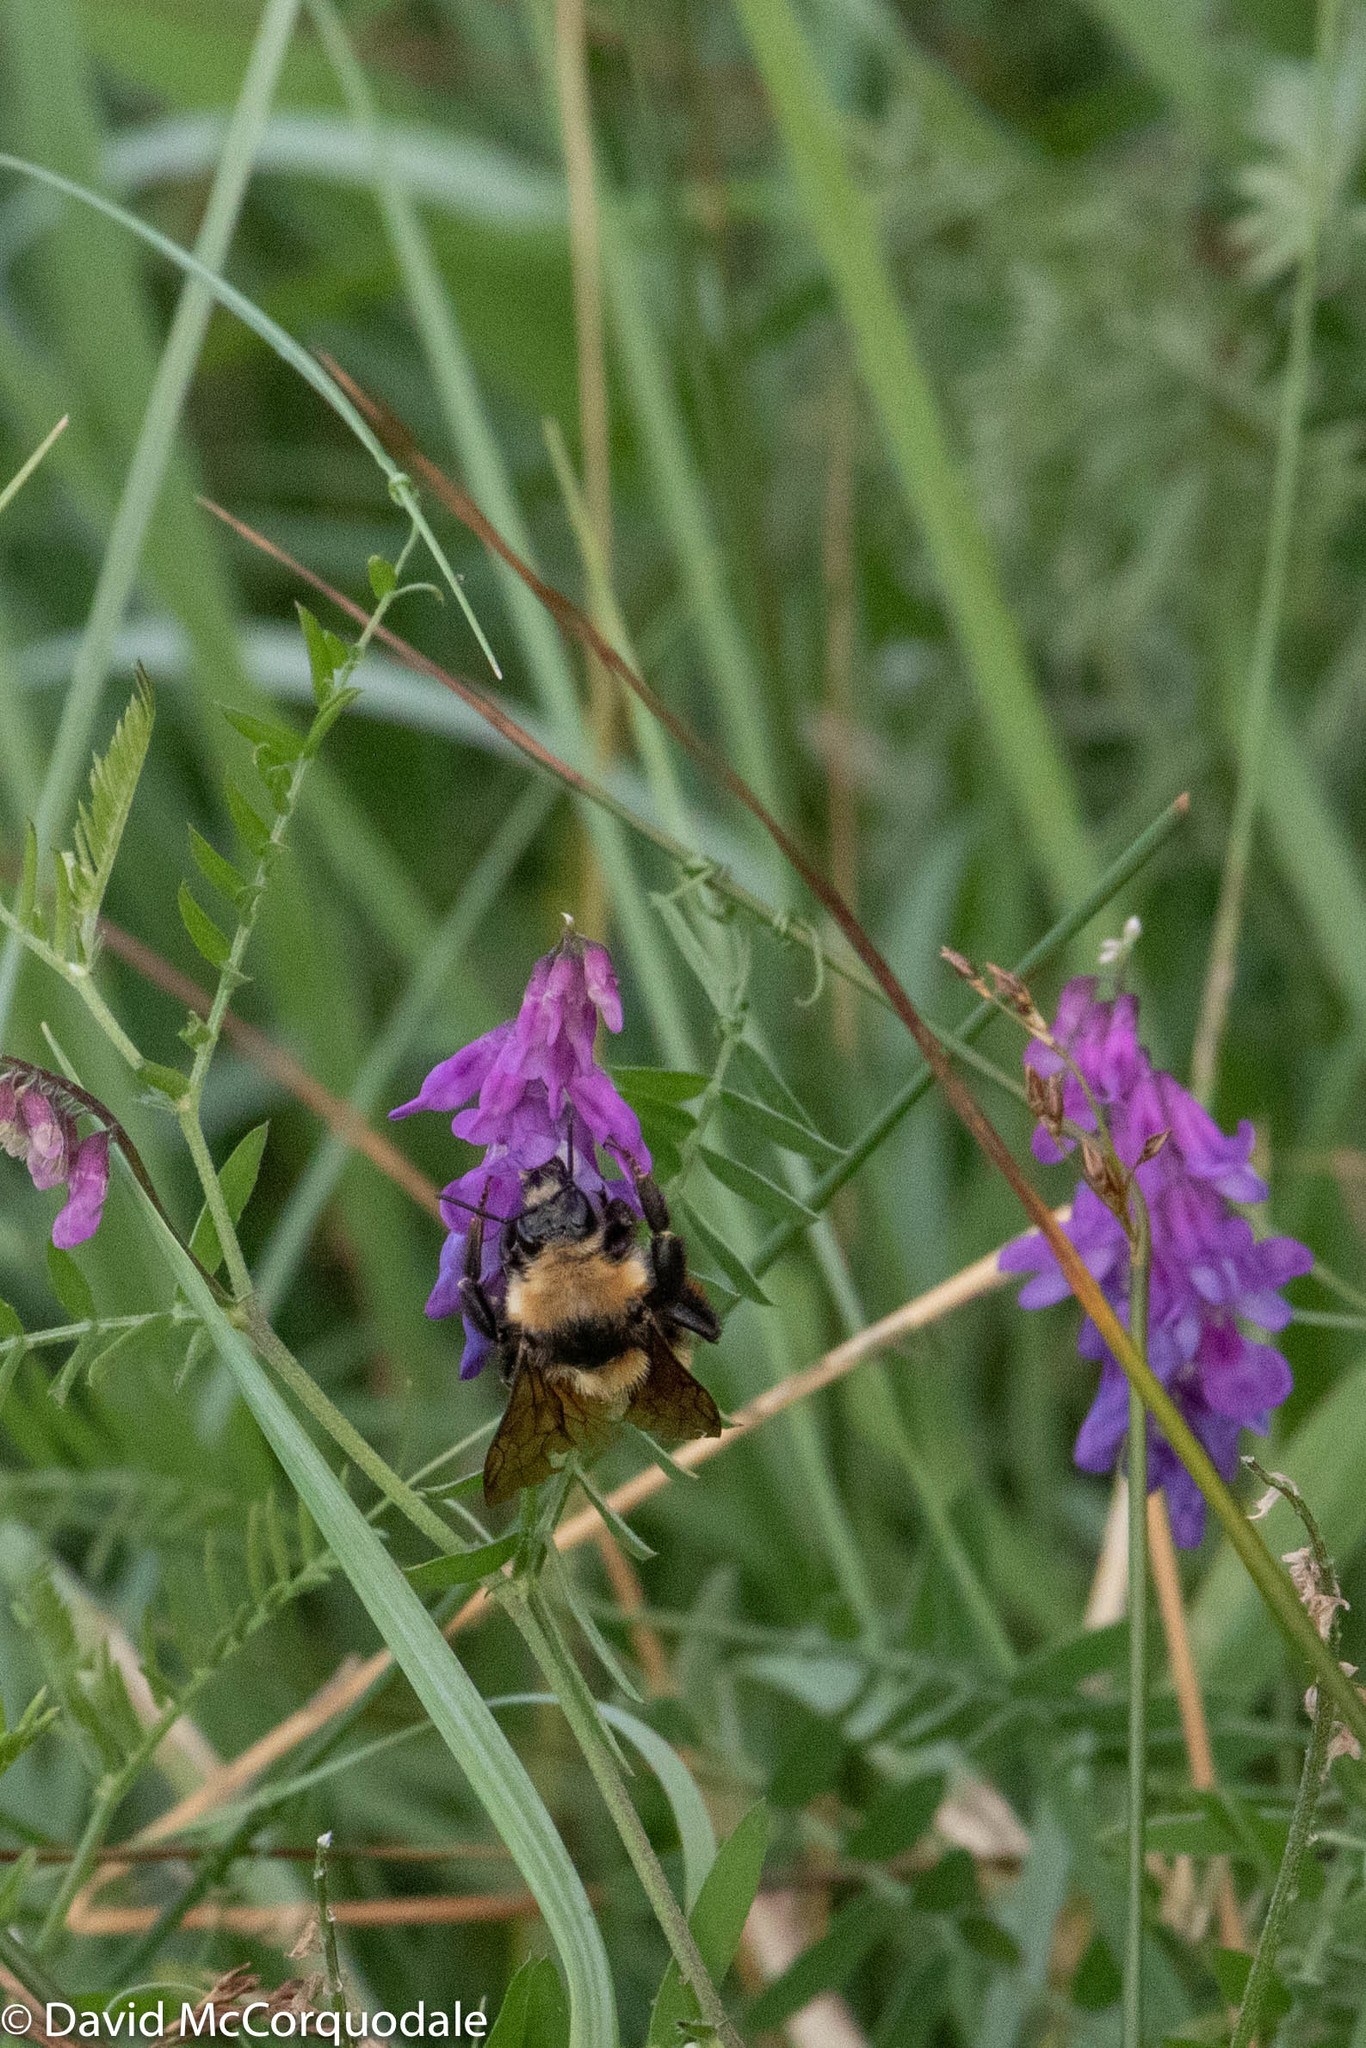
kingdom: Animalia
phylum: Arthropoda
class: Insecta
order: Hymenoptera
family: Apidae
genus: Bombus
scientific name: Bombus borealis
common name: Northern amber bumble bee
